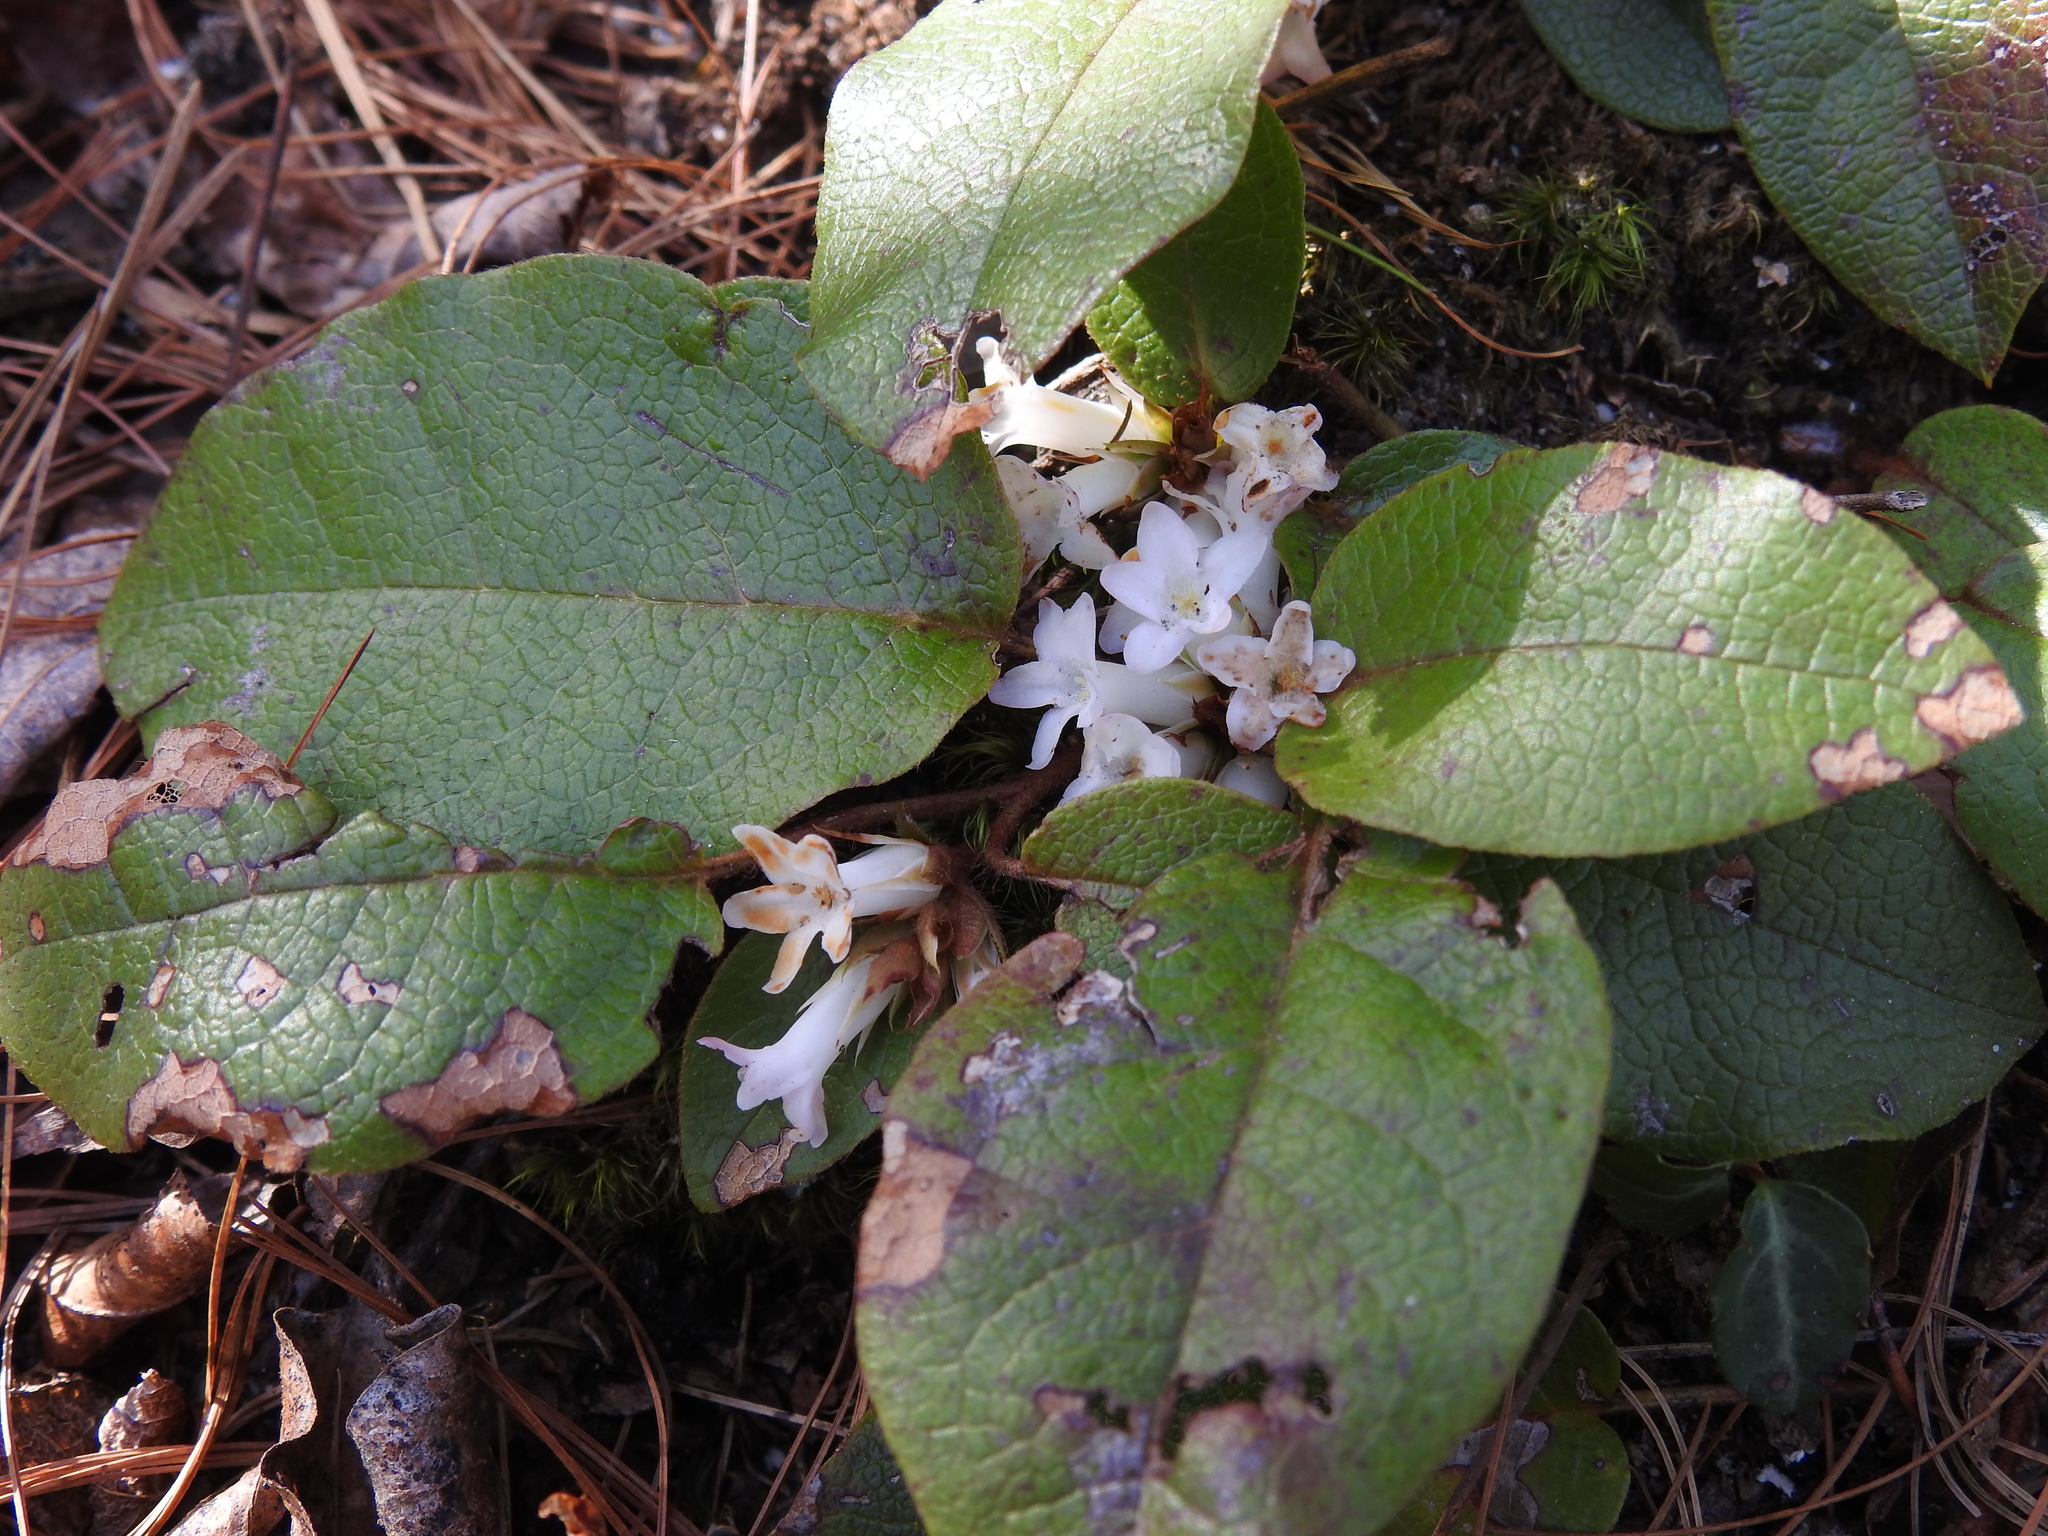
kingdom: Plantae
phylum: Tracheophyta
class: Magnoliopsida
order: Ericales
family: Ericaceae
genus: Epigaea
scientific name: Epigaea repens
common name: Gravelroot
